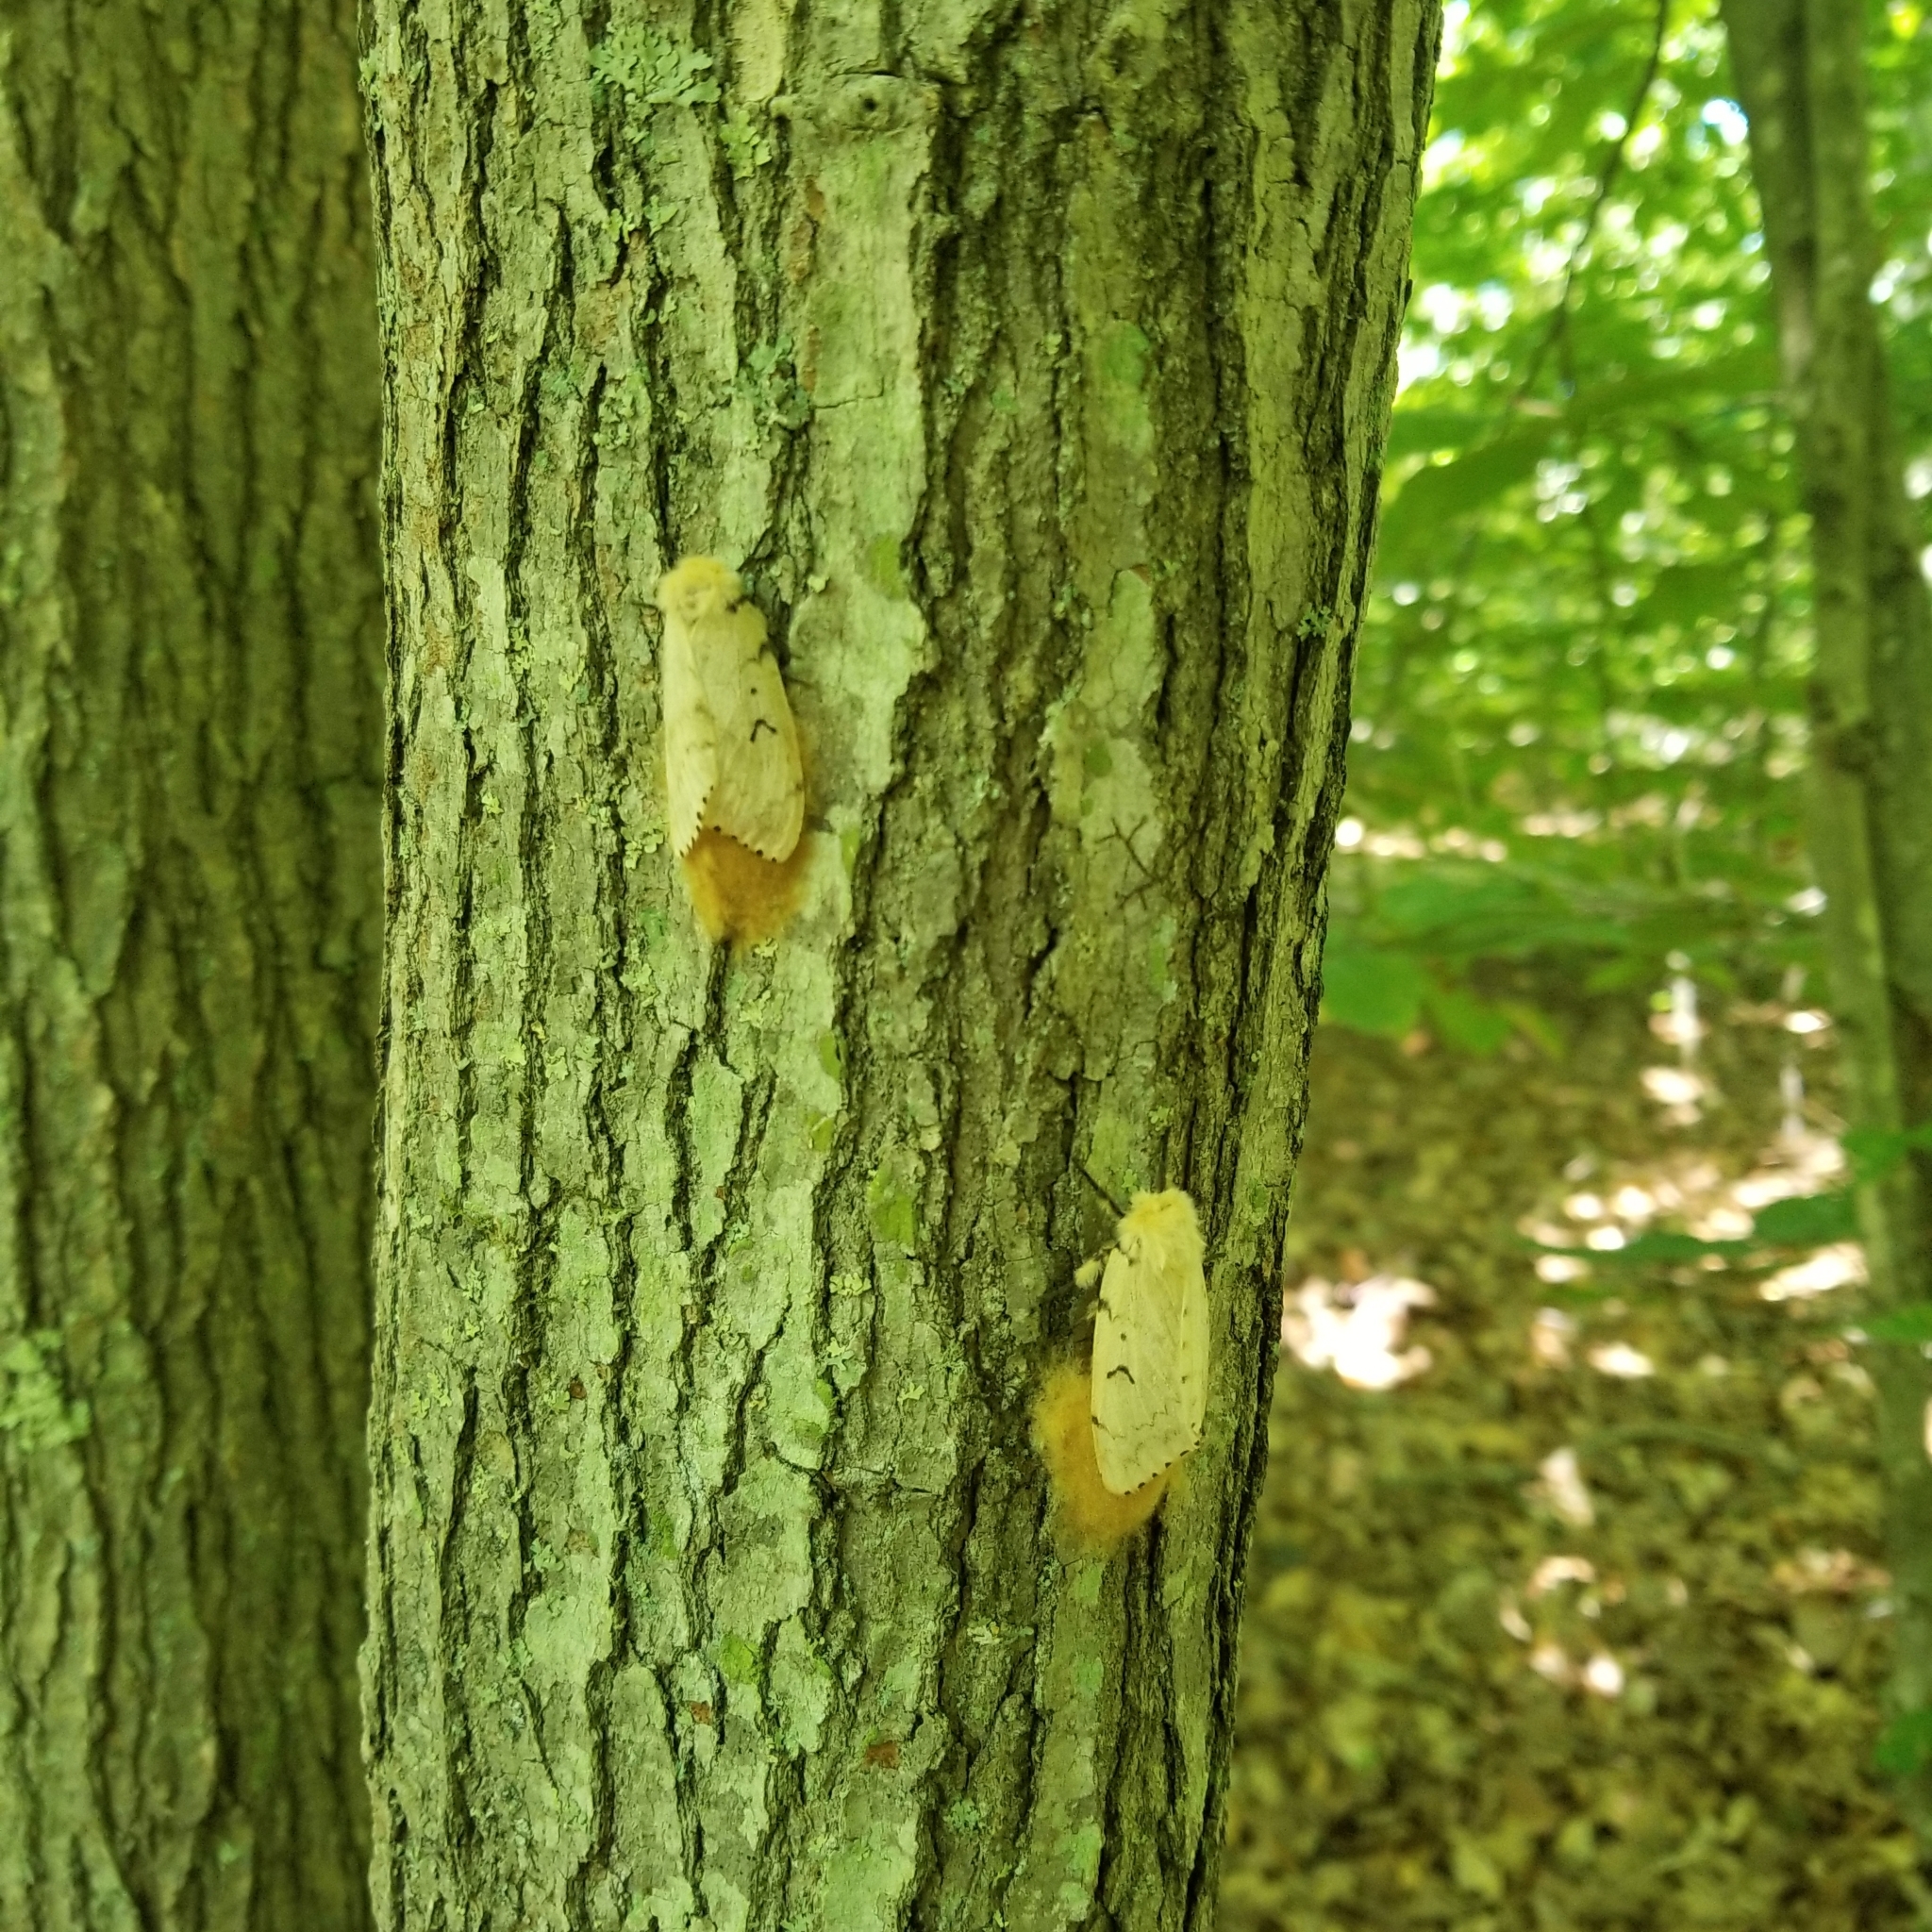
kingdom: Animalia
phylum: Arthropoda
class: Insecta
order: Lepidoptera
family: Erebidae
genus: Lymantria
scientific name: Lymantria dispar
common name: Gypsy moth
